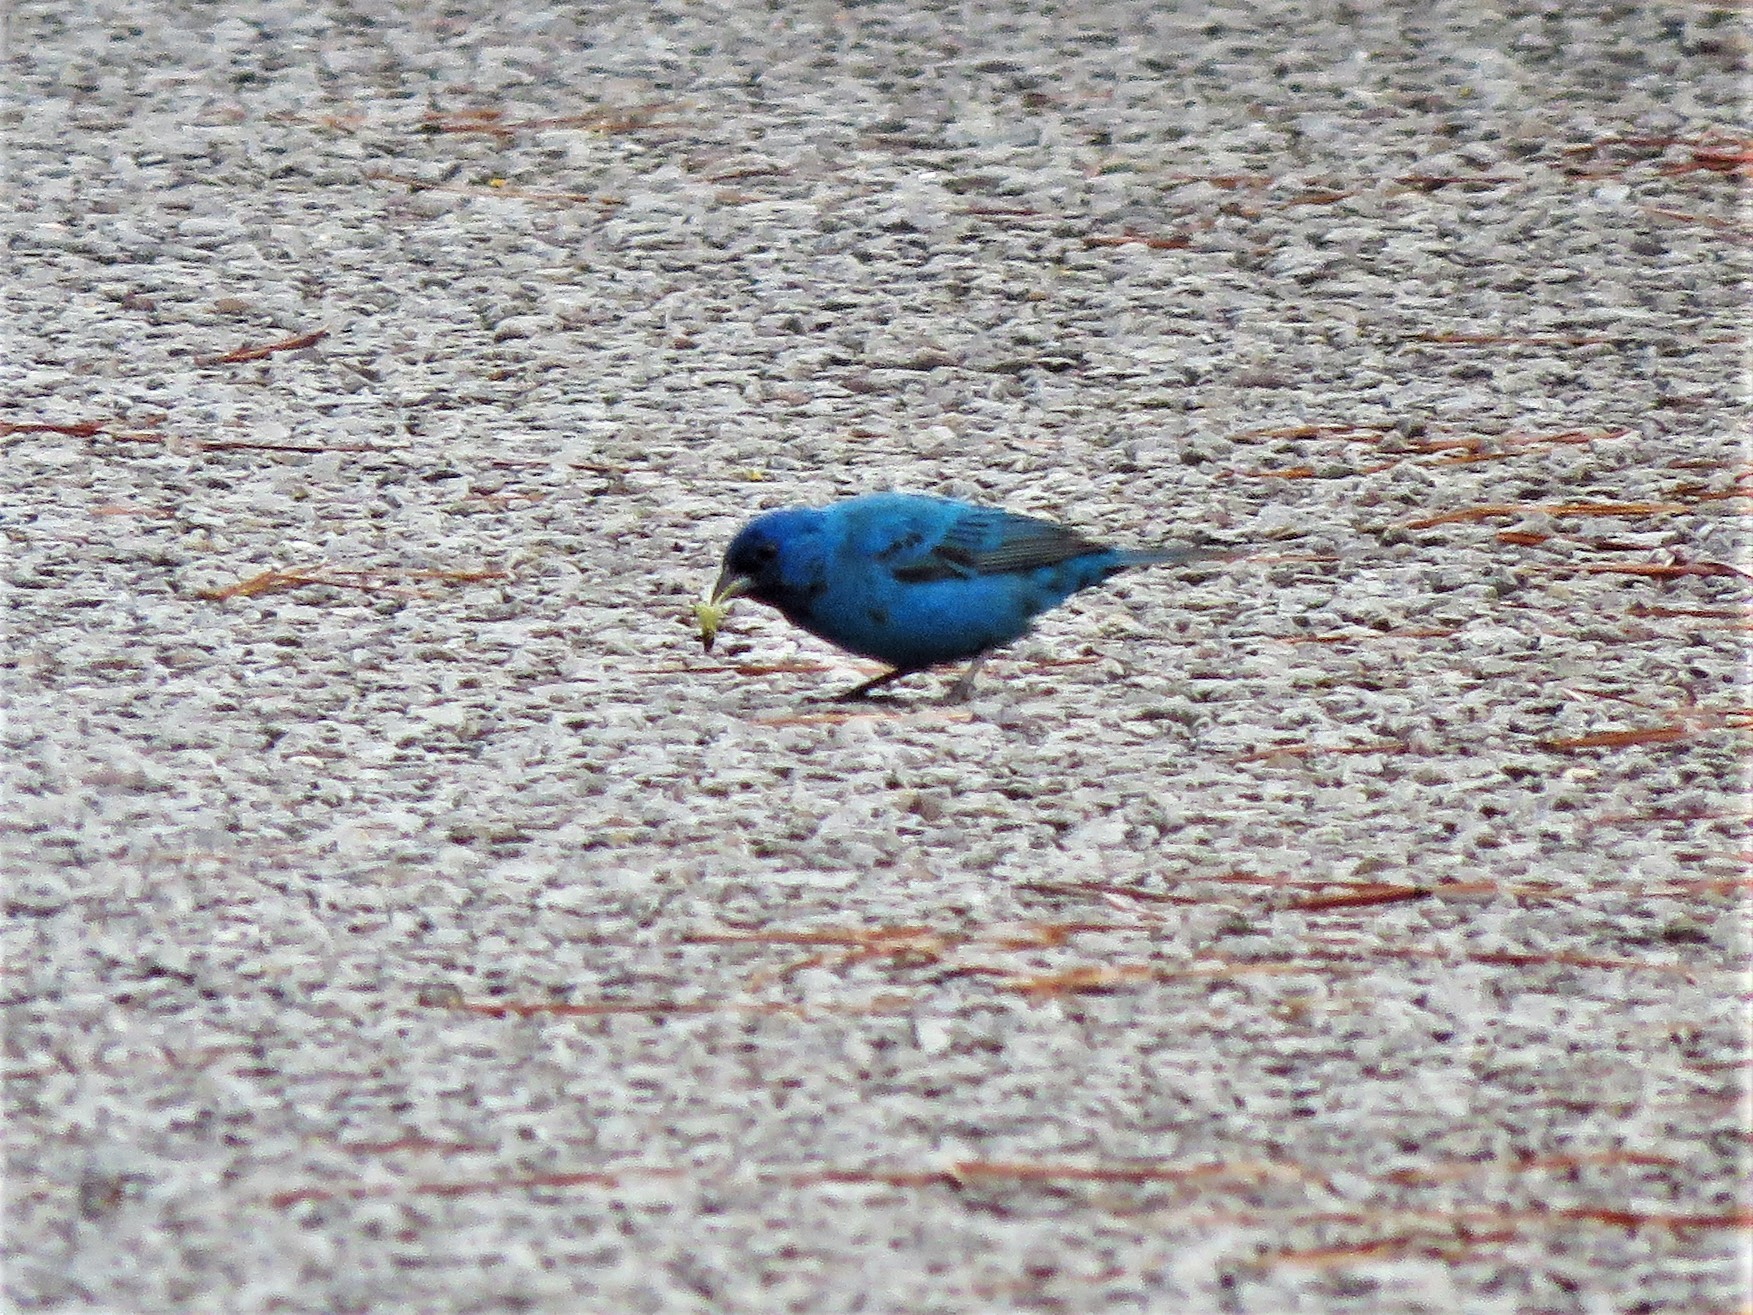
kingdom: Animalia
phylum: Chordata
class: Aves
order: Passeriformes
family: Cardinalidae
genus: Passerina
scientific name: Passerina cyanea
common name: Indigo bunting
